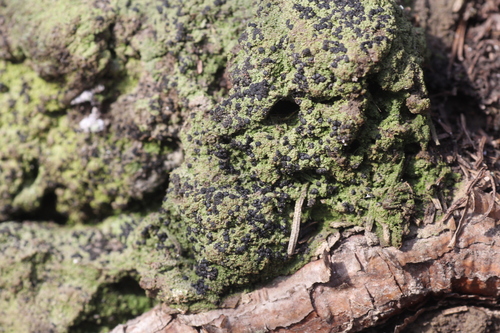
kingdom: Fungi
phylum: Ascomycota
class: Lecanoromycetes
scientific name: Lecanoromycetes
